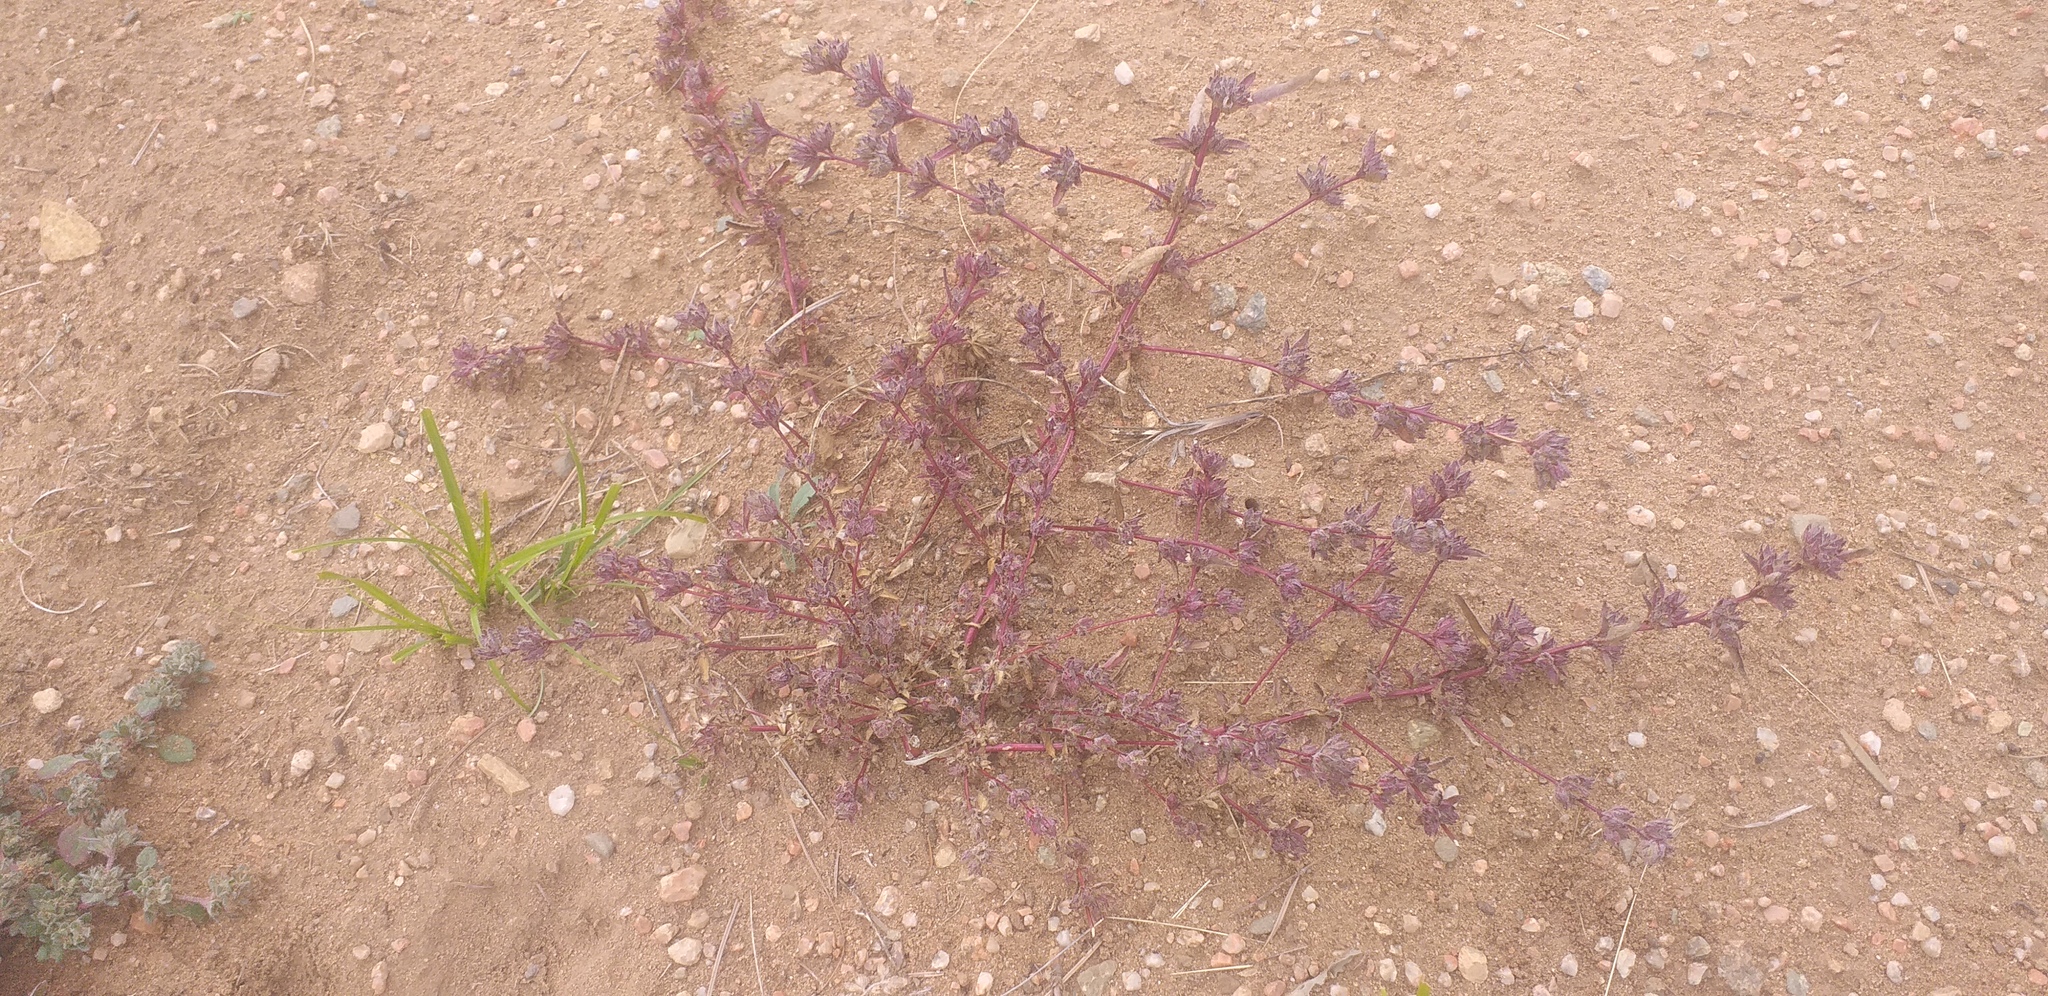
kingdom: Plantae
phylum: Tracheophyta
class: Magnoliopsida
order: Caryophyllales
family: Amaranthaceae
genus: Axyris
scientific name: Axyris prostrata
